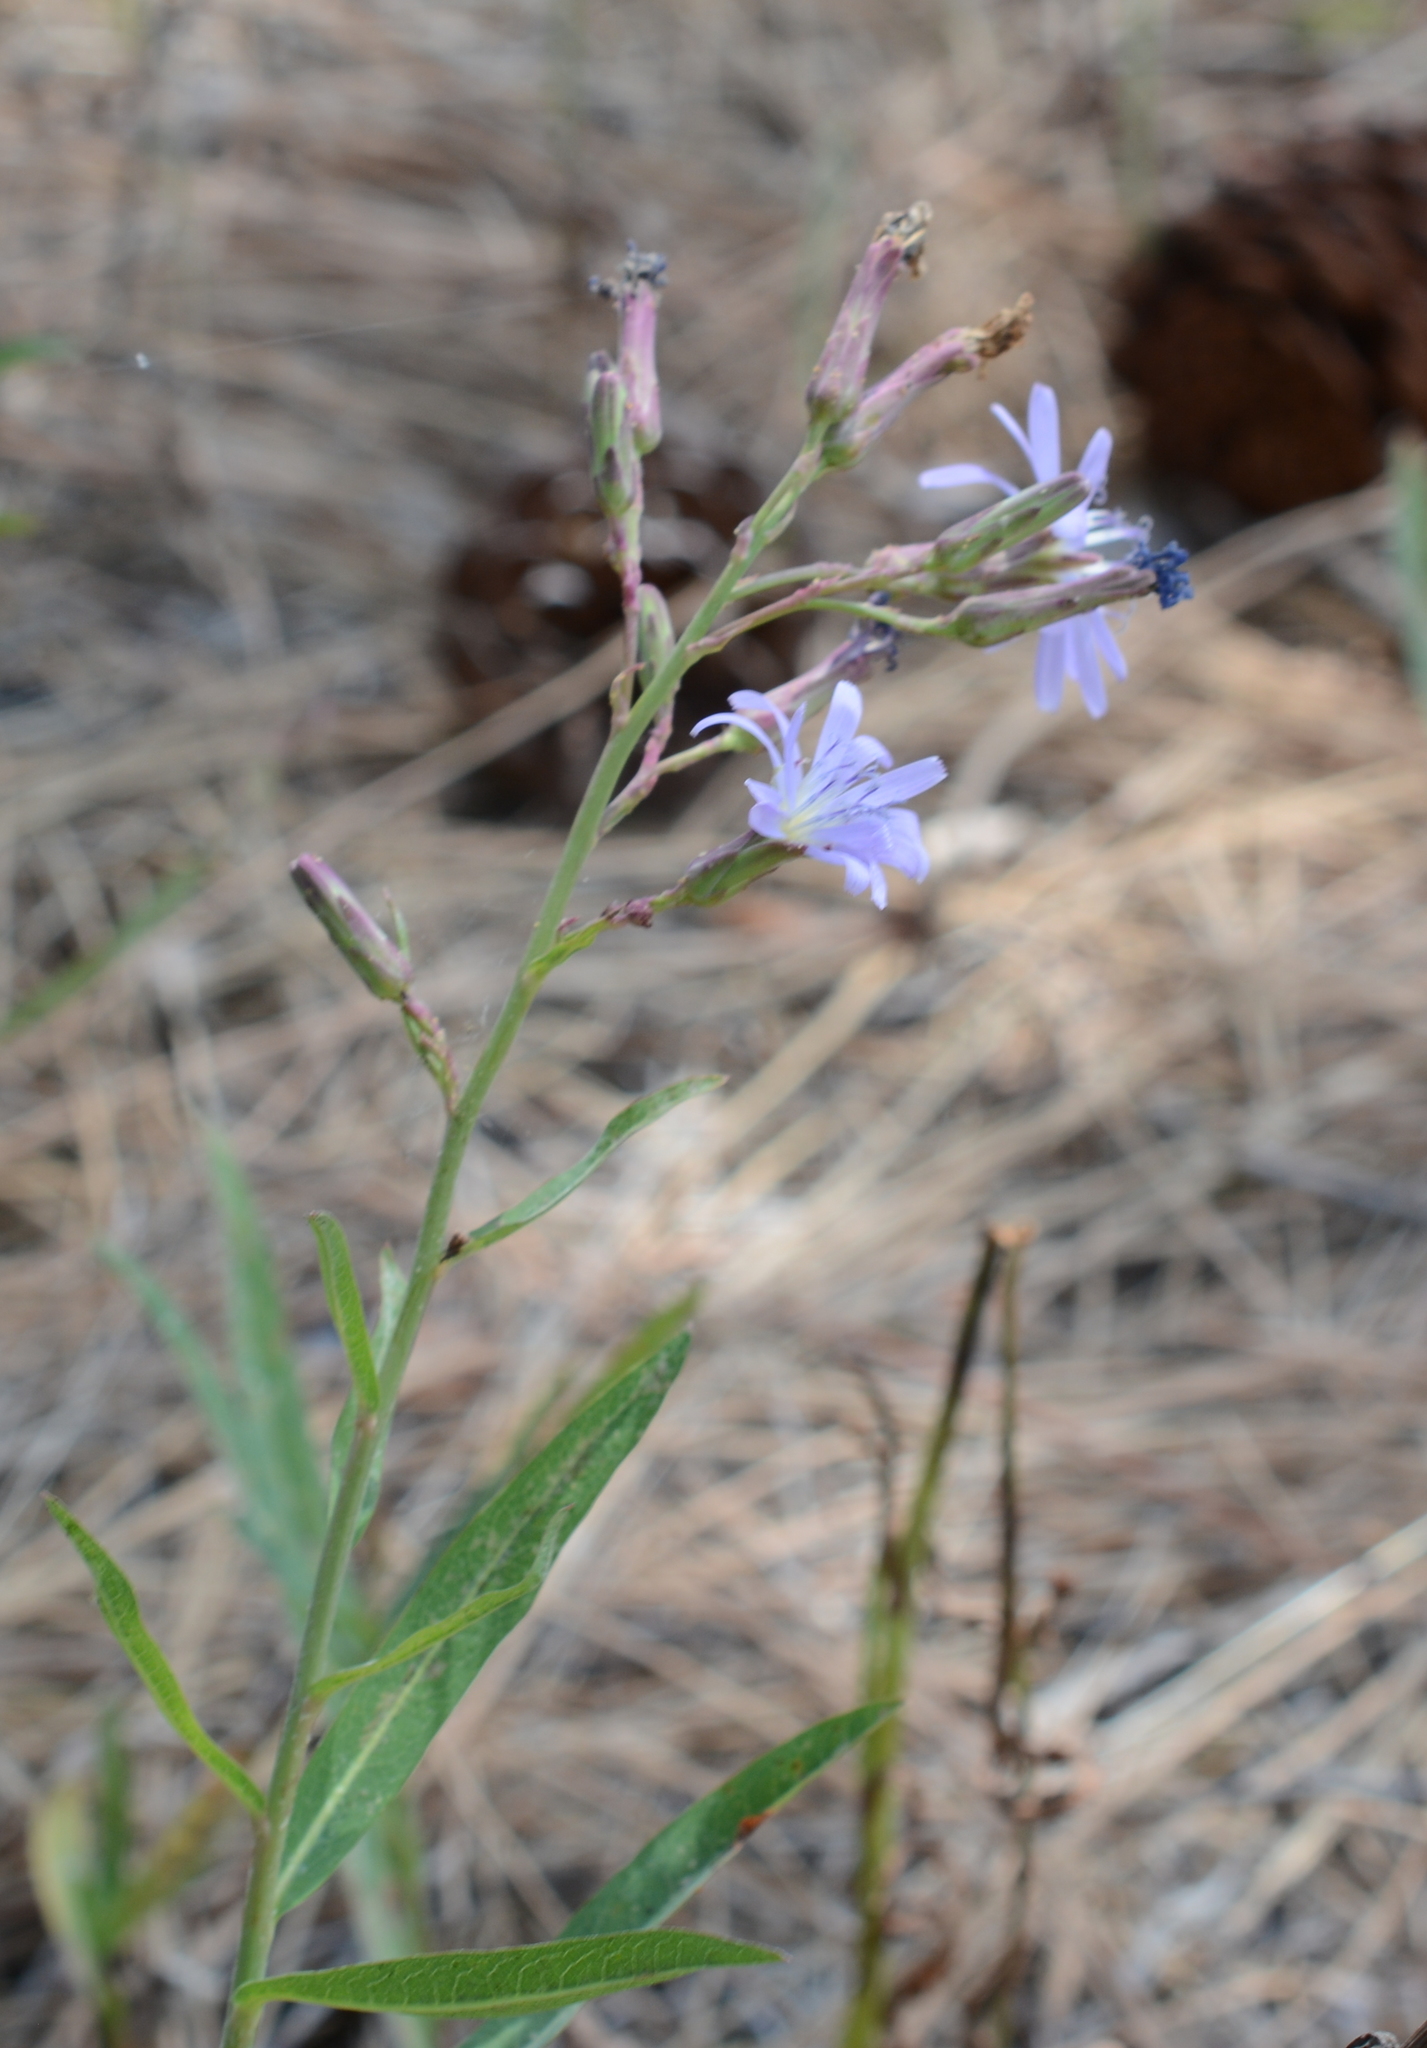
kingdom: Plantae
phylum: Tracheophyta
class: Magnoliopsida
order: Asterales
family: Asteraceae
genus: Lactuca
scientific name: Lactuca pulchella
